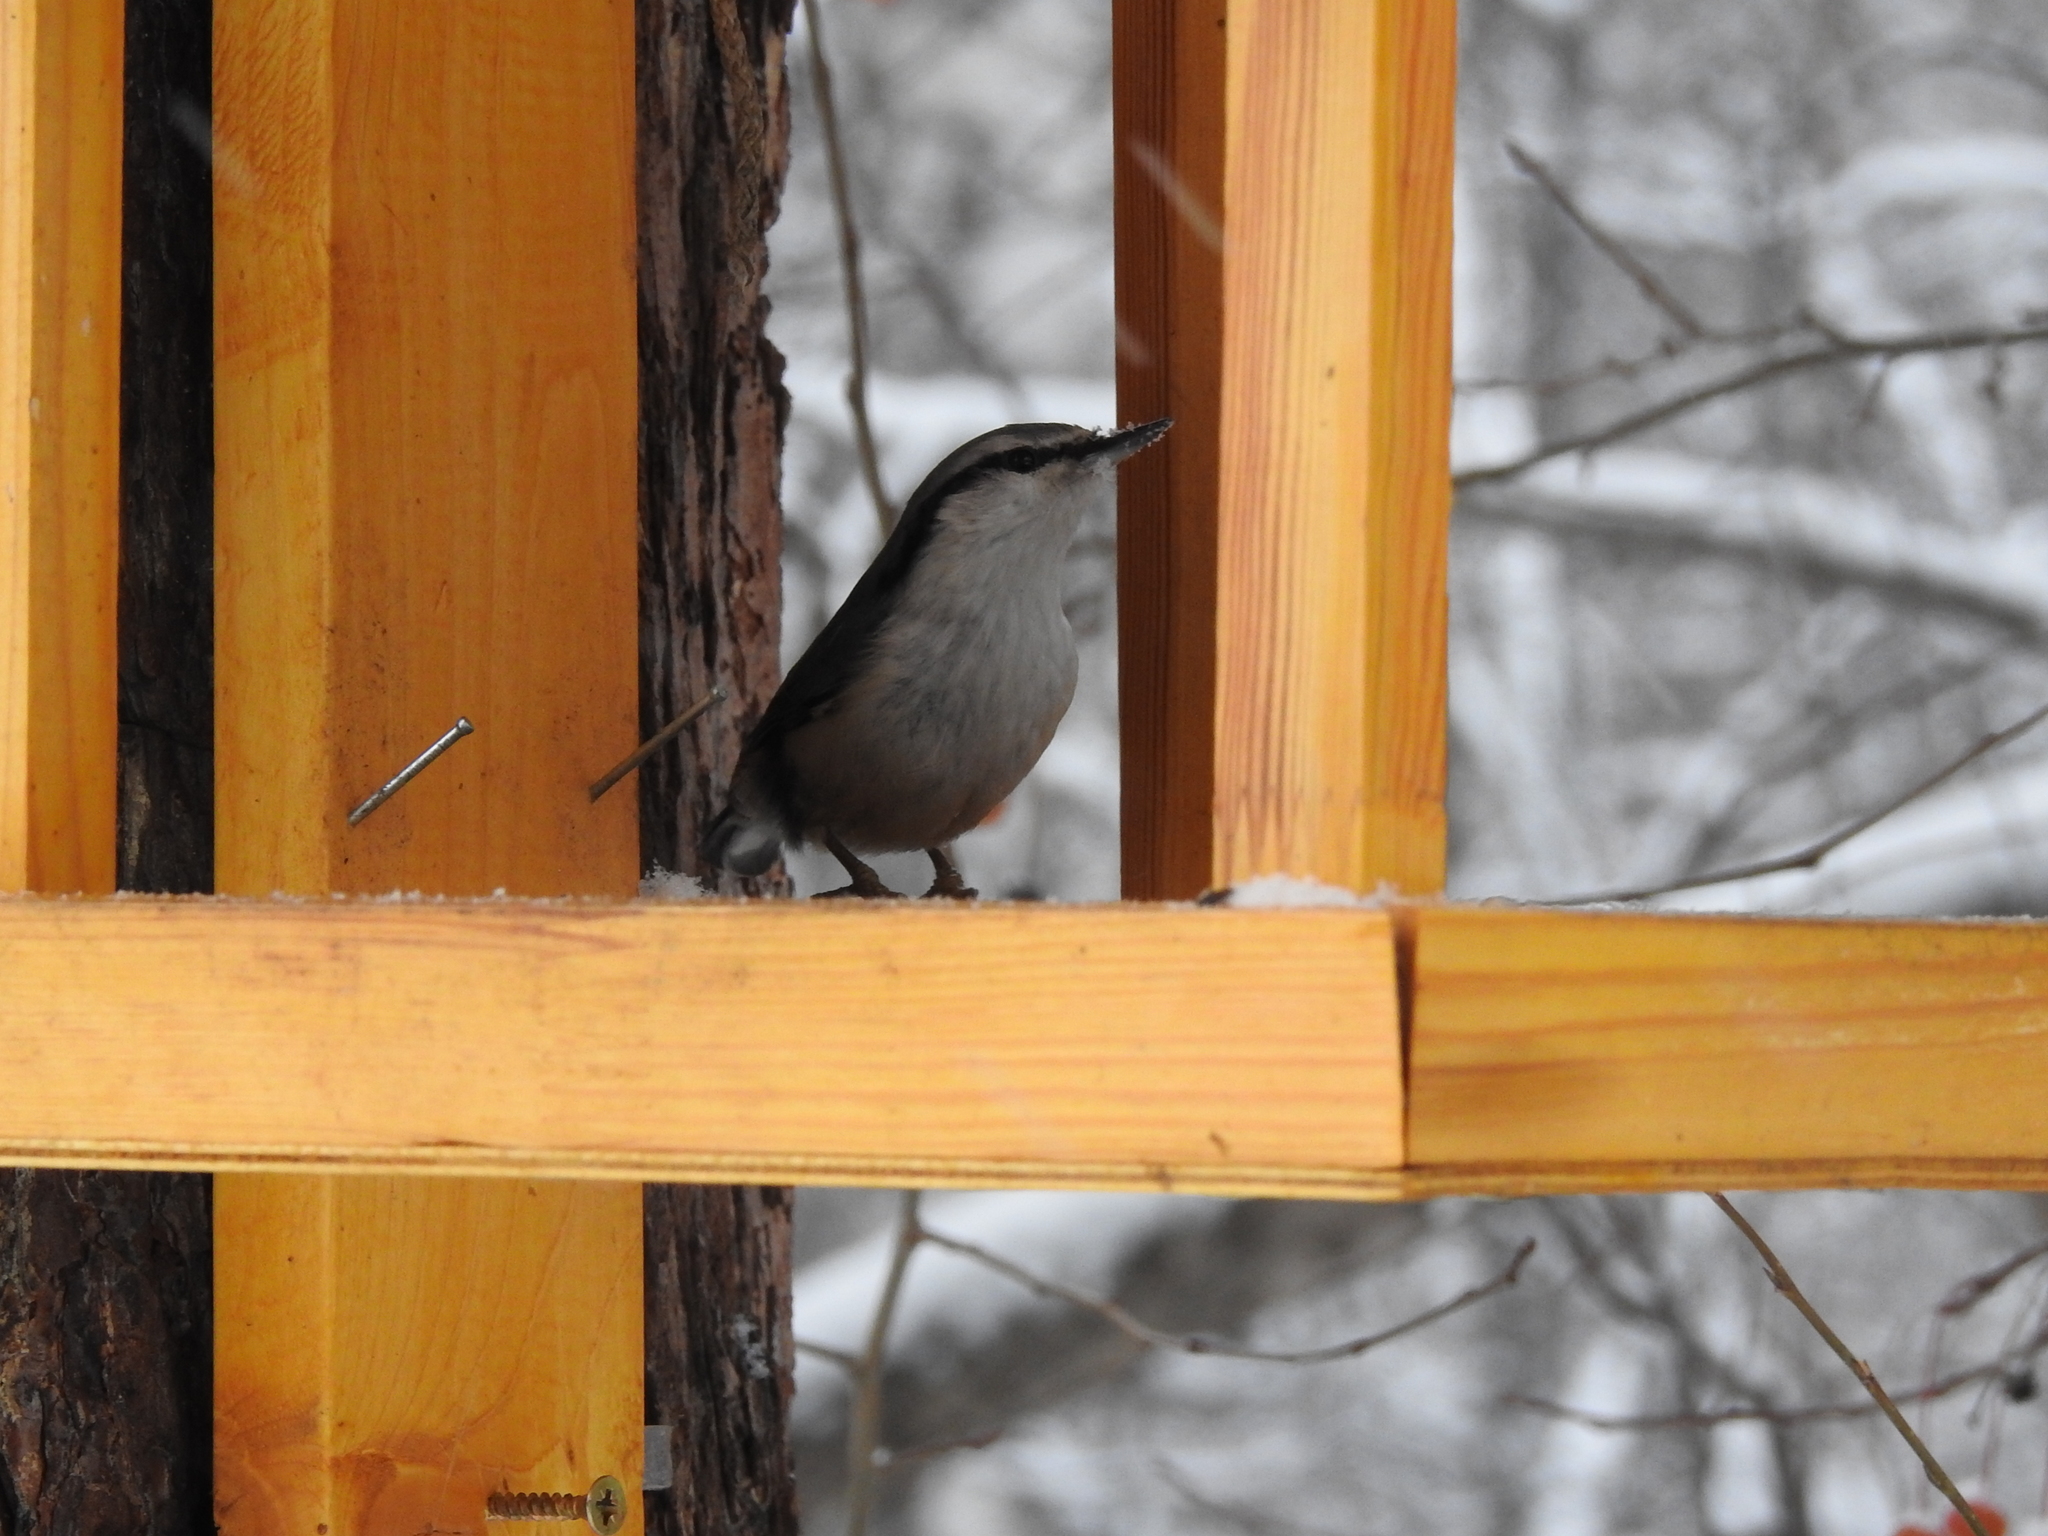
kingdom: Animalia
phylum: Chordata
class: Aves
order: Passeriformes
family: Sittidae
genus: Sitta
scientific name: Sitta europaea
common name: Eurasian nuthatch
